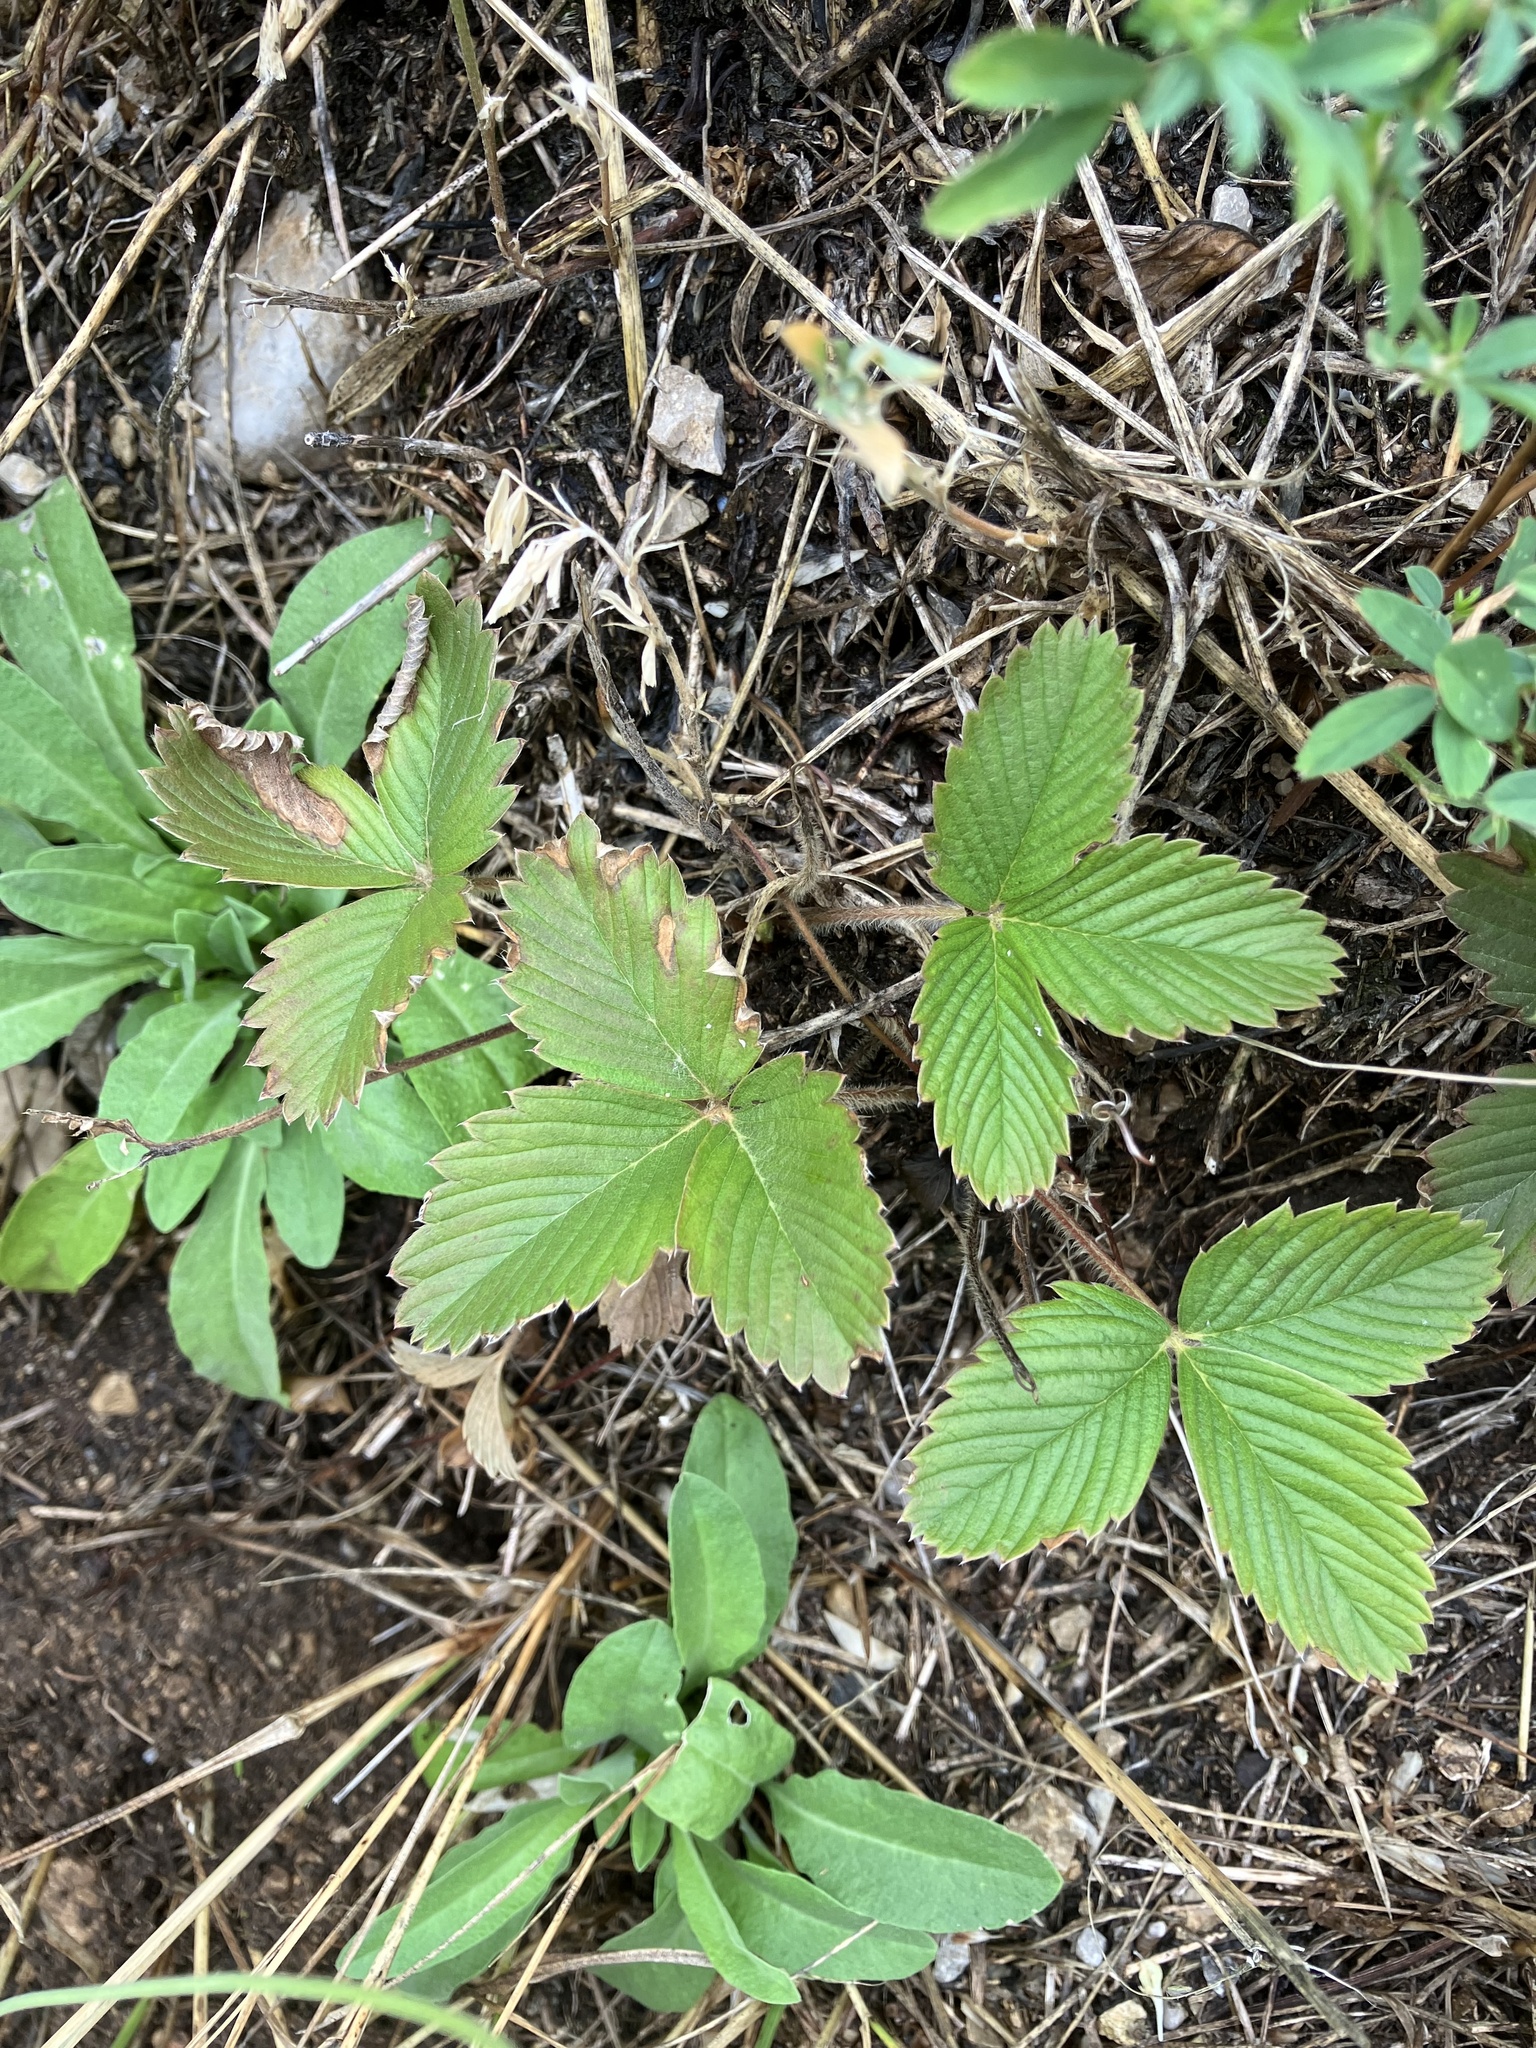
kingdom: Plantae
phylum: Tracheophyta
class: Magnoliopsida
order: Rosales
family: Rosaceae
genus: Fragaria
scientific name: Fragaria viridis
